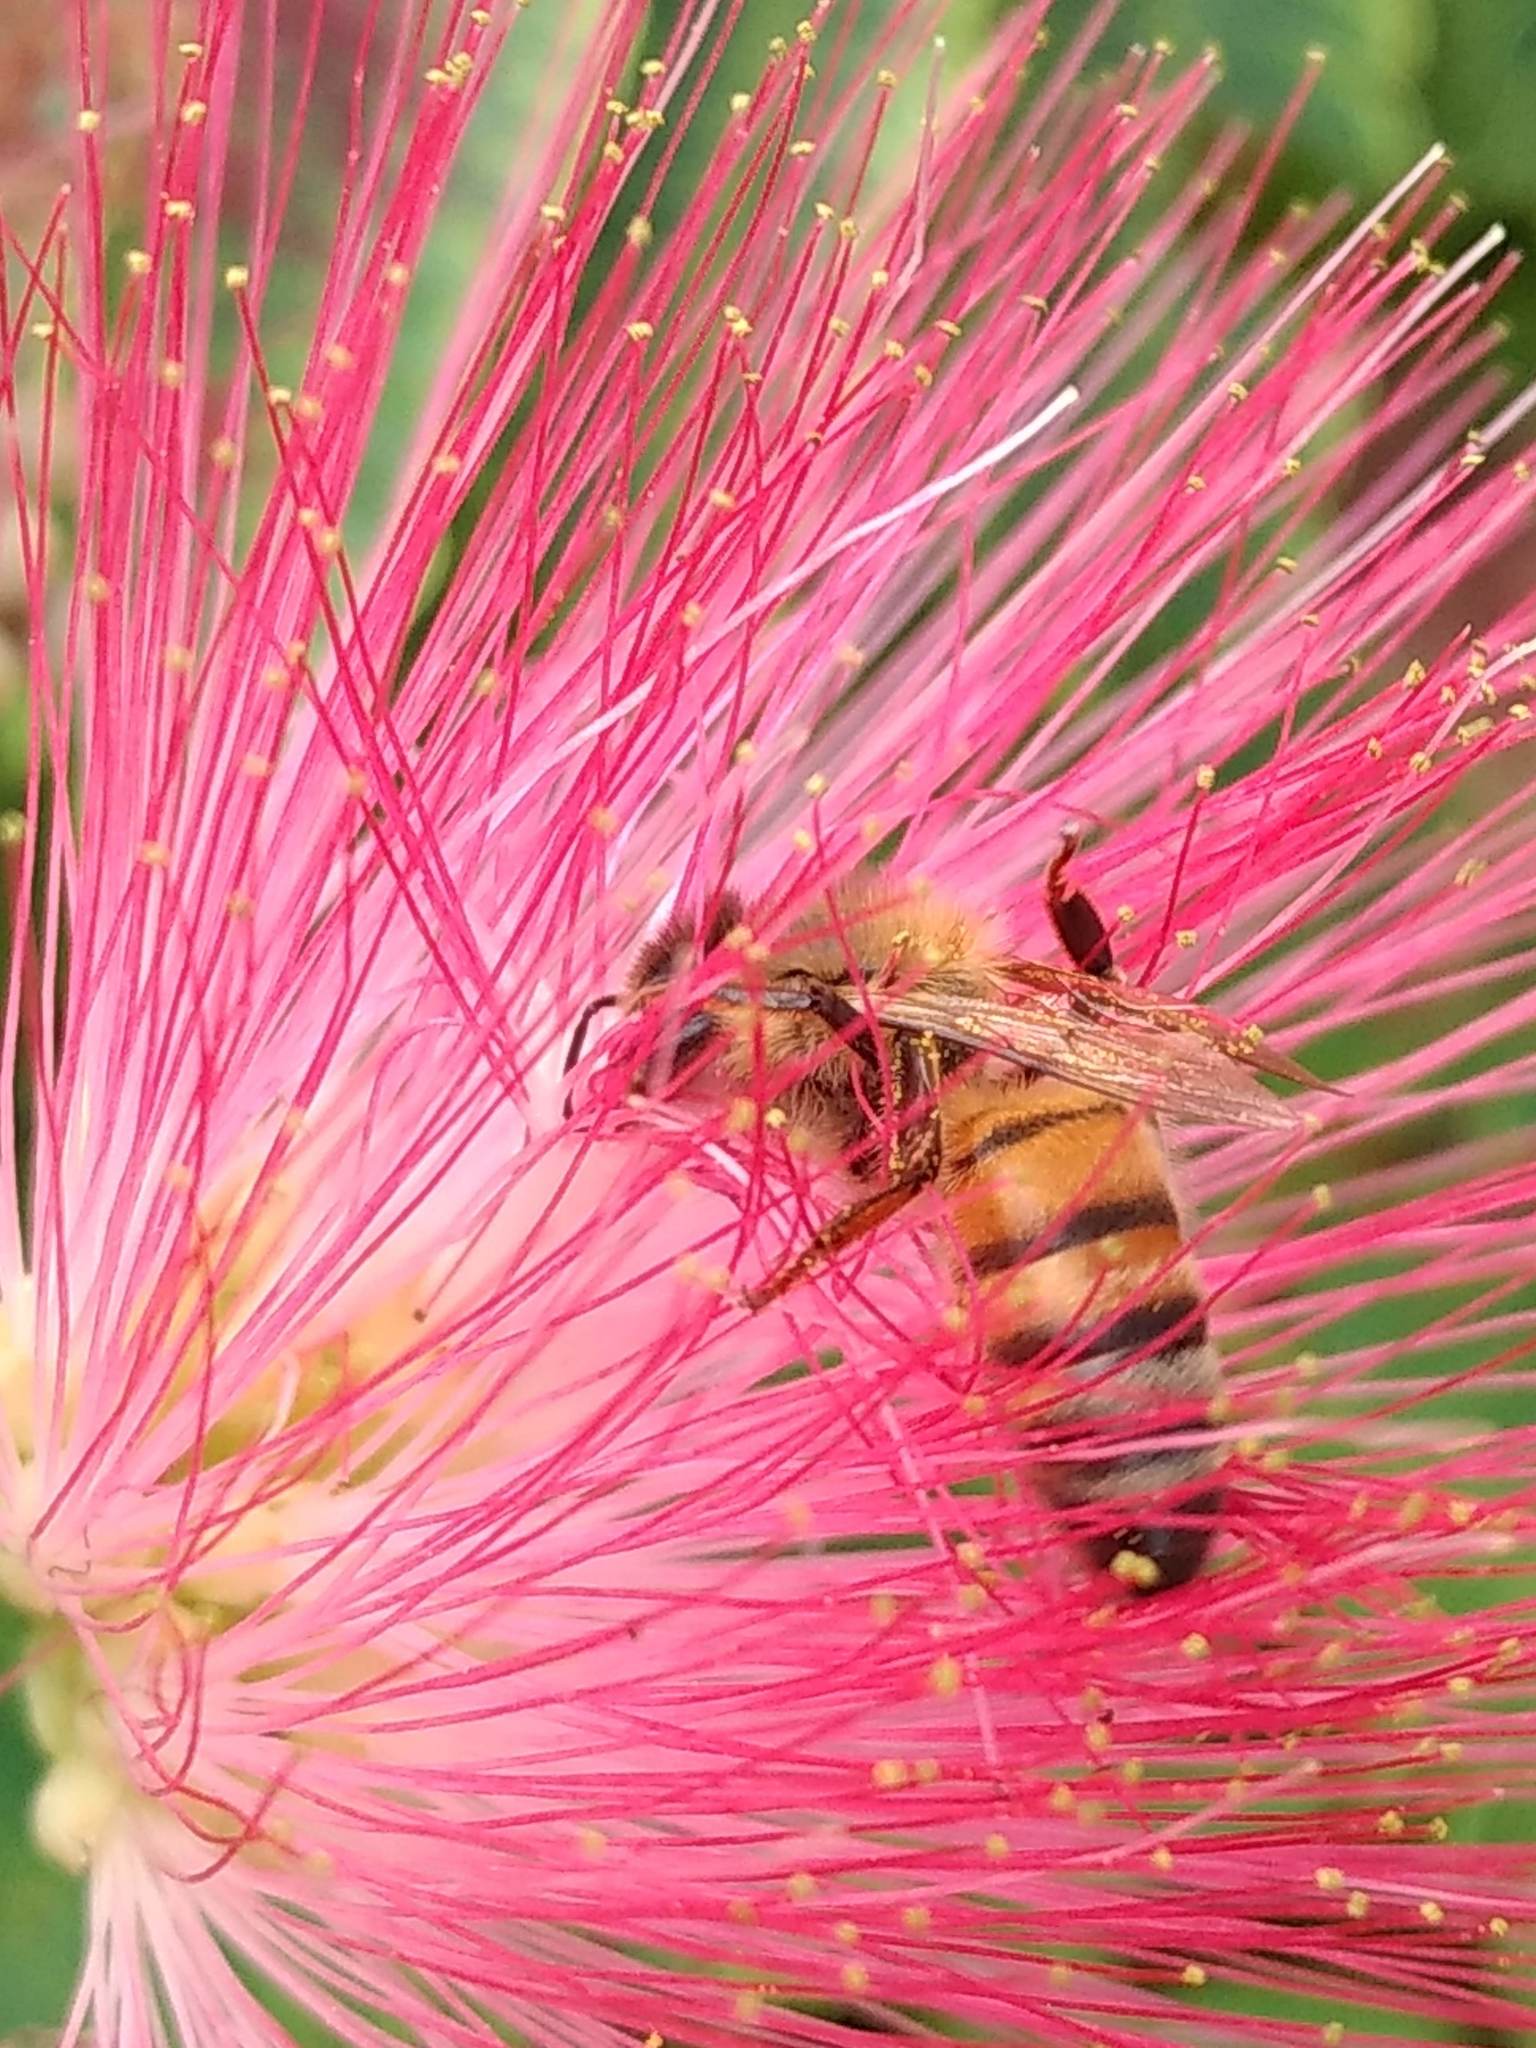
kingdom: Animalia
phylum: Arthropoda
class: Insecta
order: Hymenoptera
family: Apidae
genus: Apis
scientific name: Apis mellifera
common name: Honey bee
